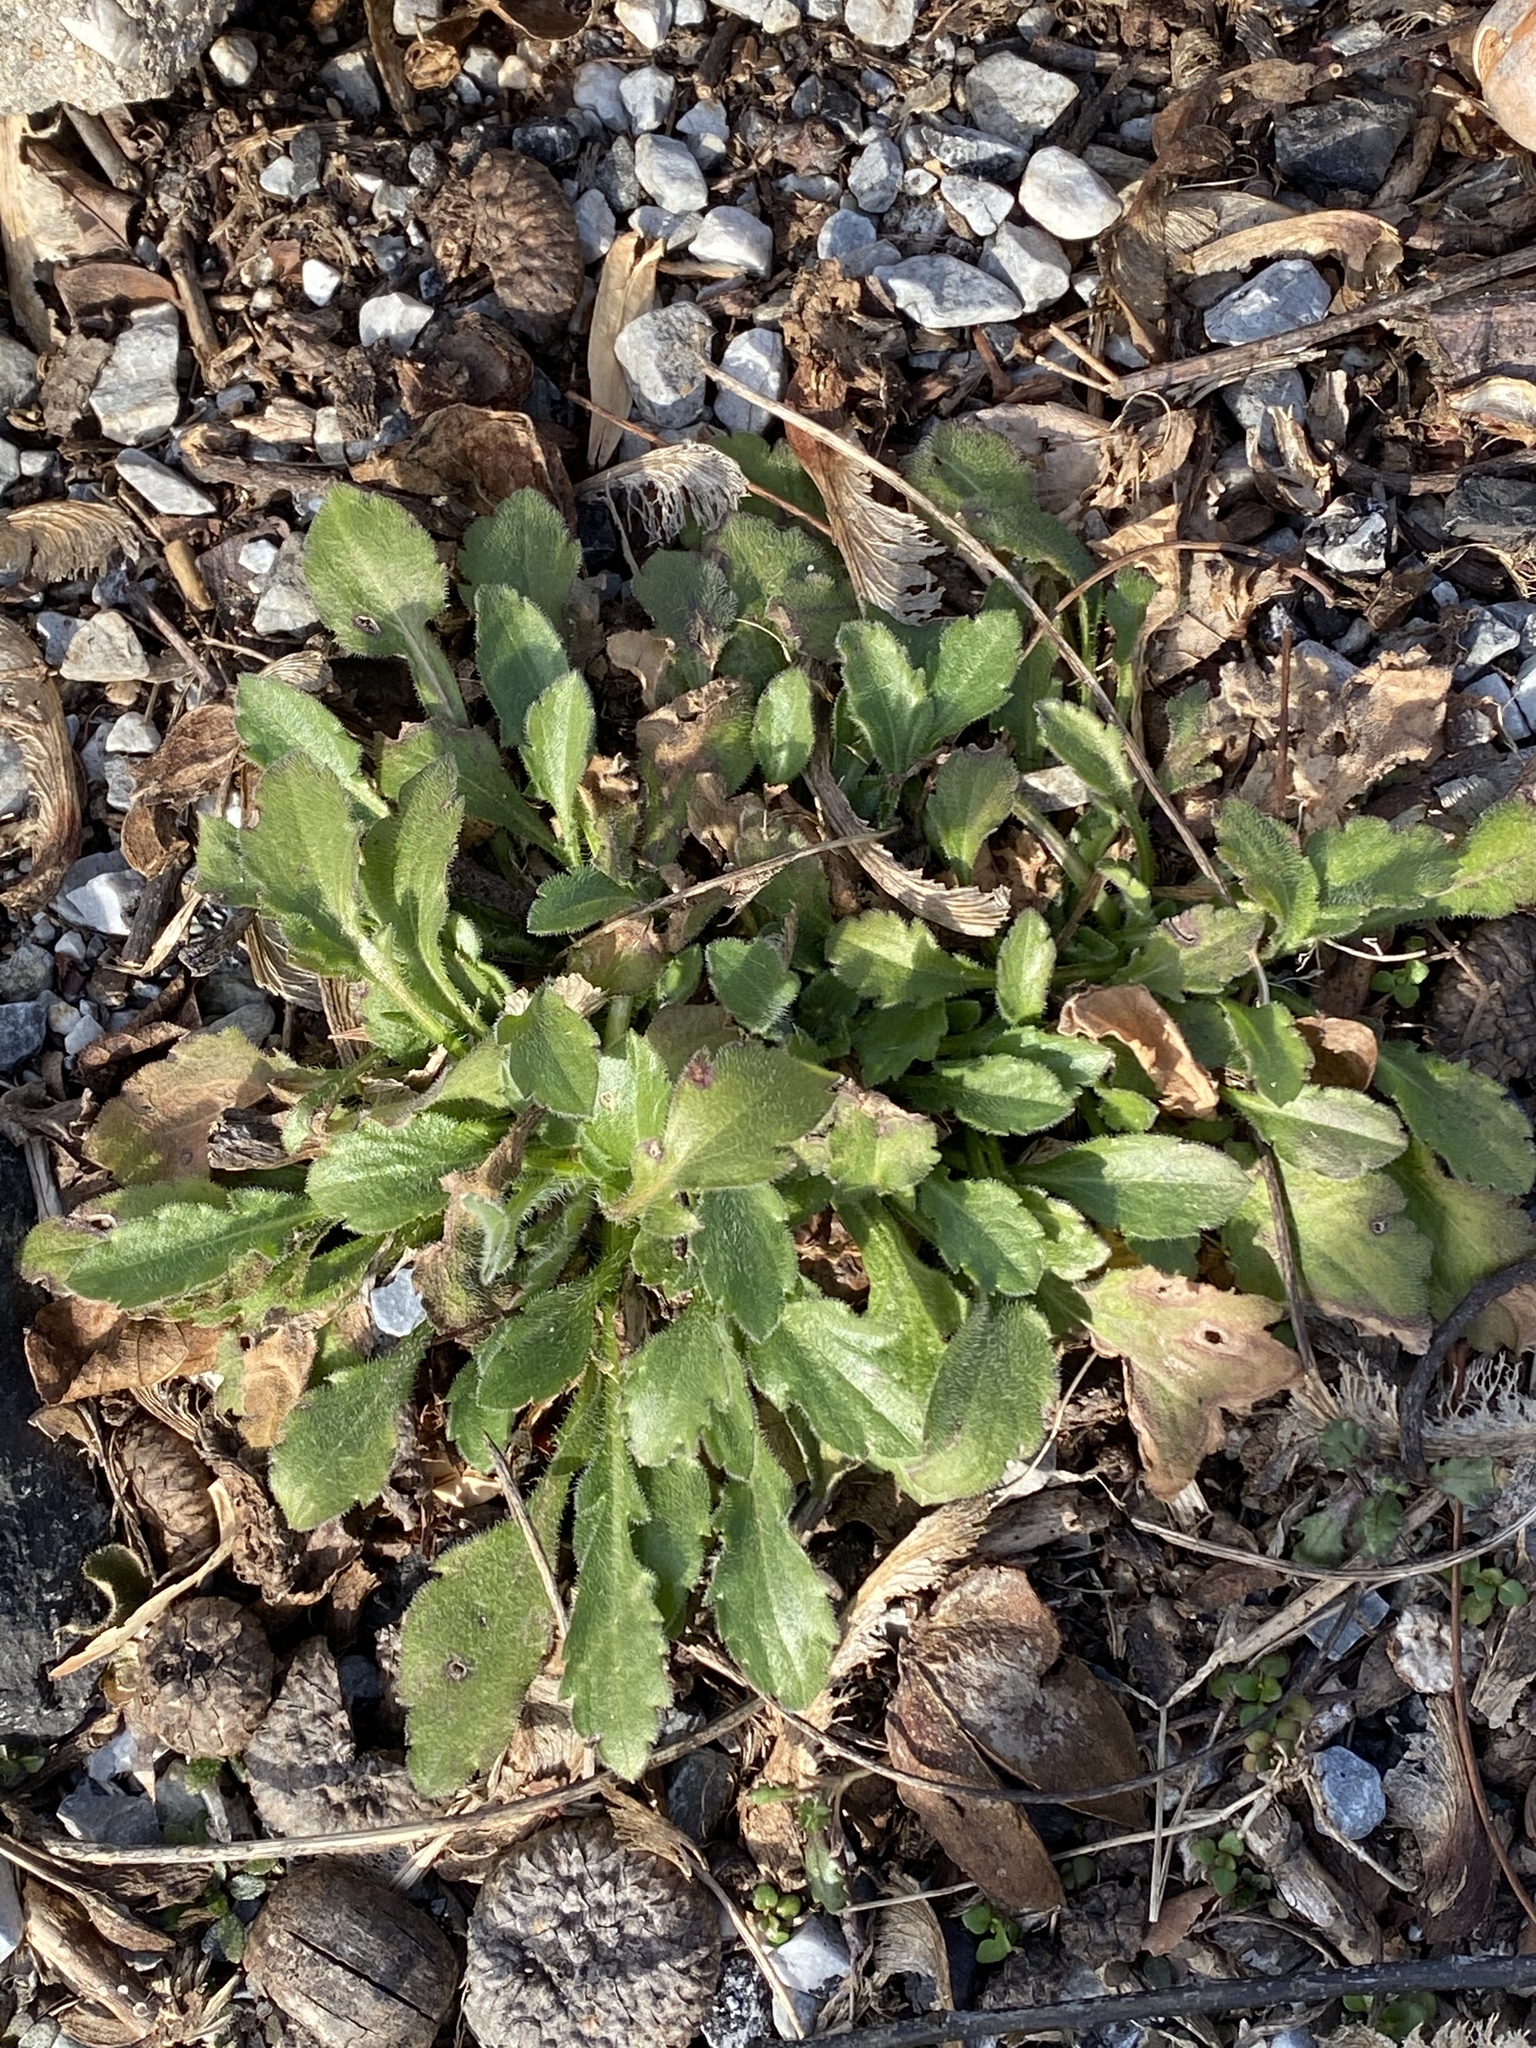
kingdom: Plantae
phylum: Tracheophyta
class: Magnoliopsida
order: Asterales
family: Asteraceae
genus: Erigeron
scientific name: Erigeron canadensis
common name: Canadian fleabane
